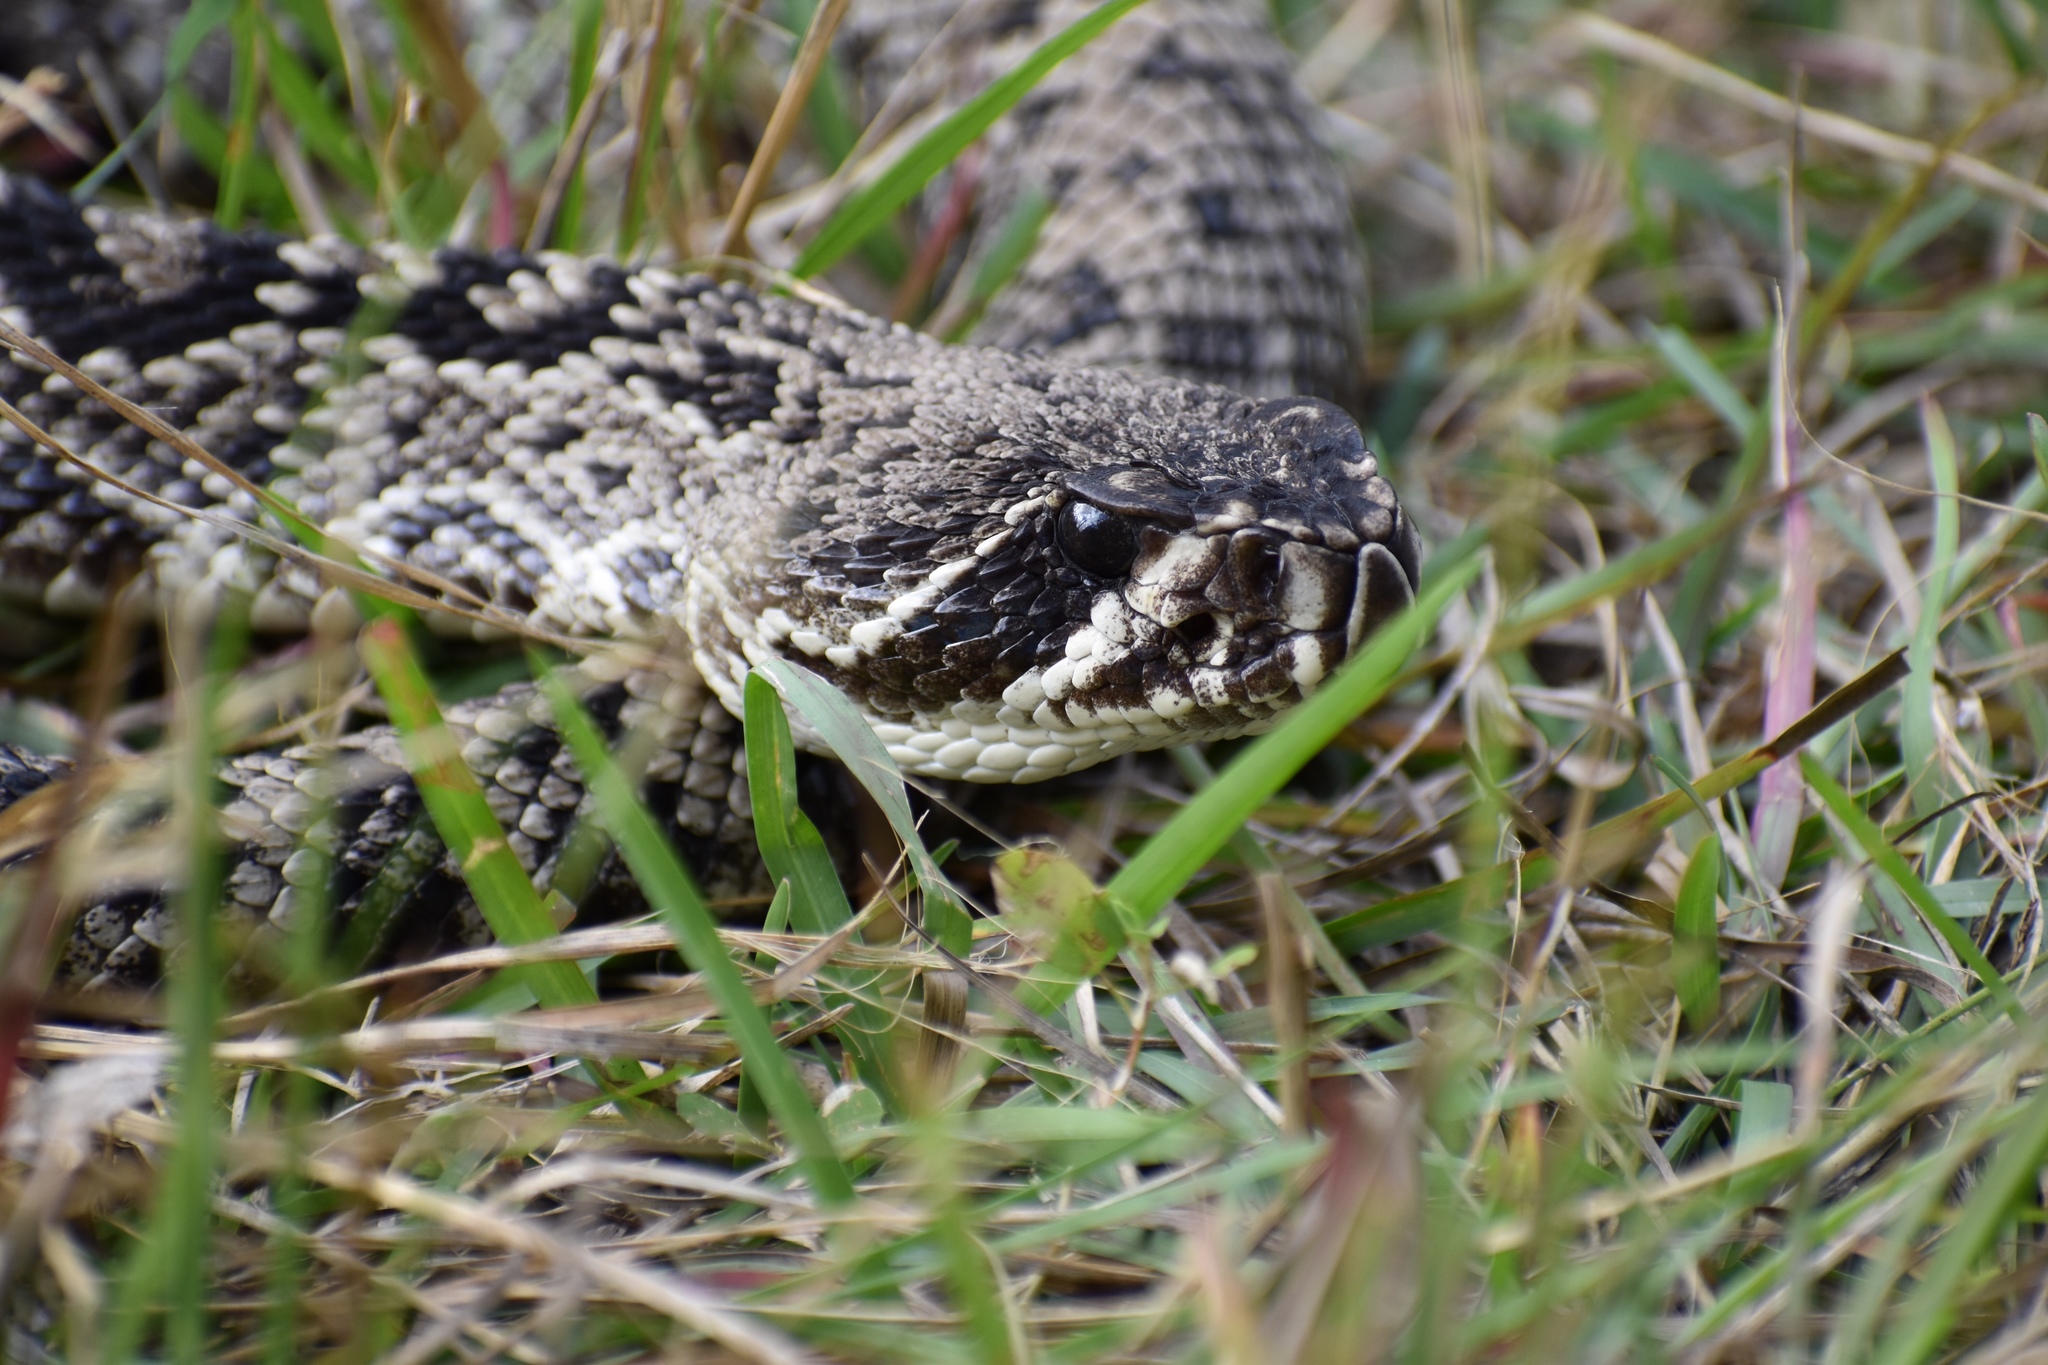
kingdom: Animalia
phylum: Chordata
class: Squamata
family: Viperidae
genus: Crotalus
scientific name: Crotalus adamanteus
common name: Eastern diamondback rattlesnake
